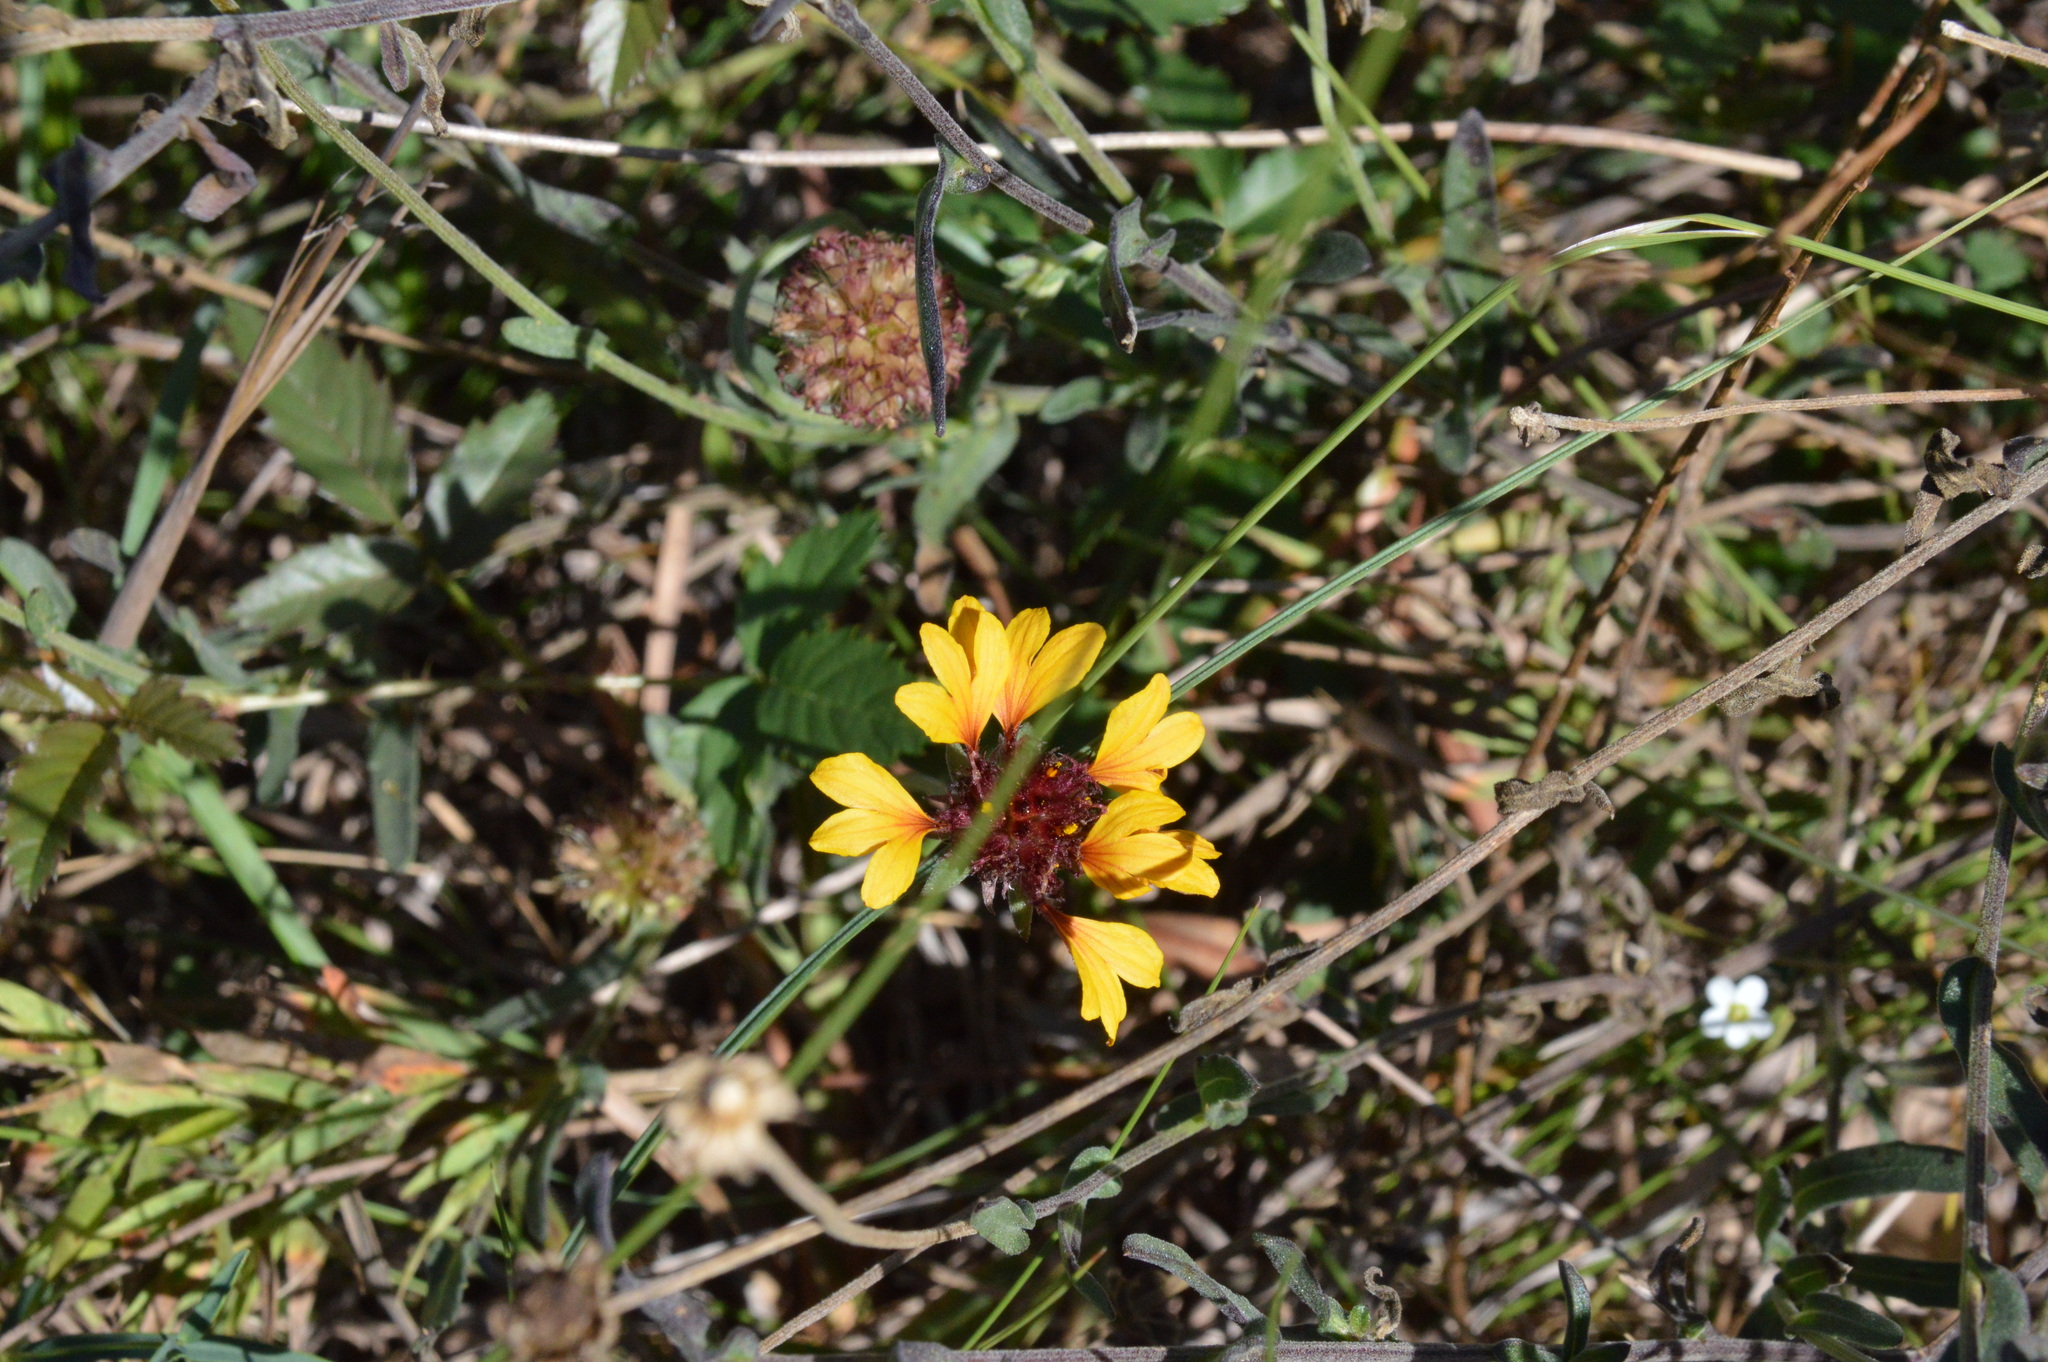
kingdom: Plantae
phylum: Tracheophyta
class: Magnoliopsida
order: Asterales
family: Asteraceae
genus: Gaillardia
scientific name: Gaillardia aestivalis
